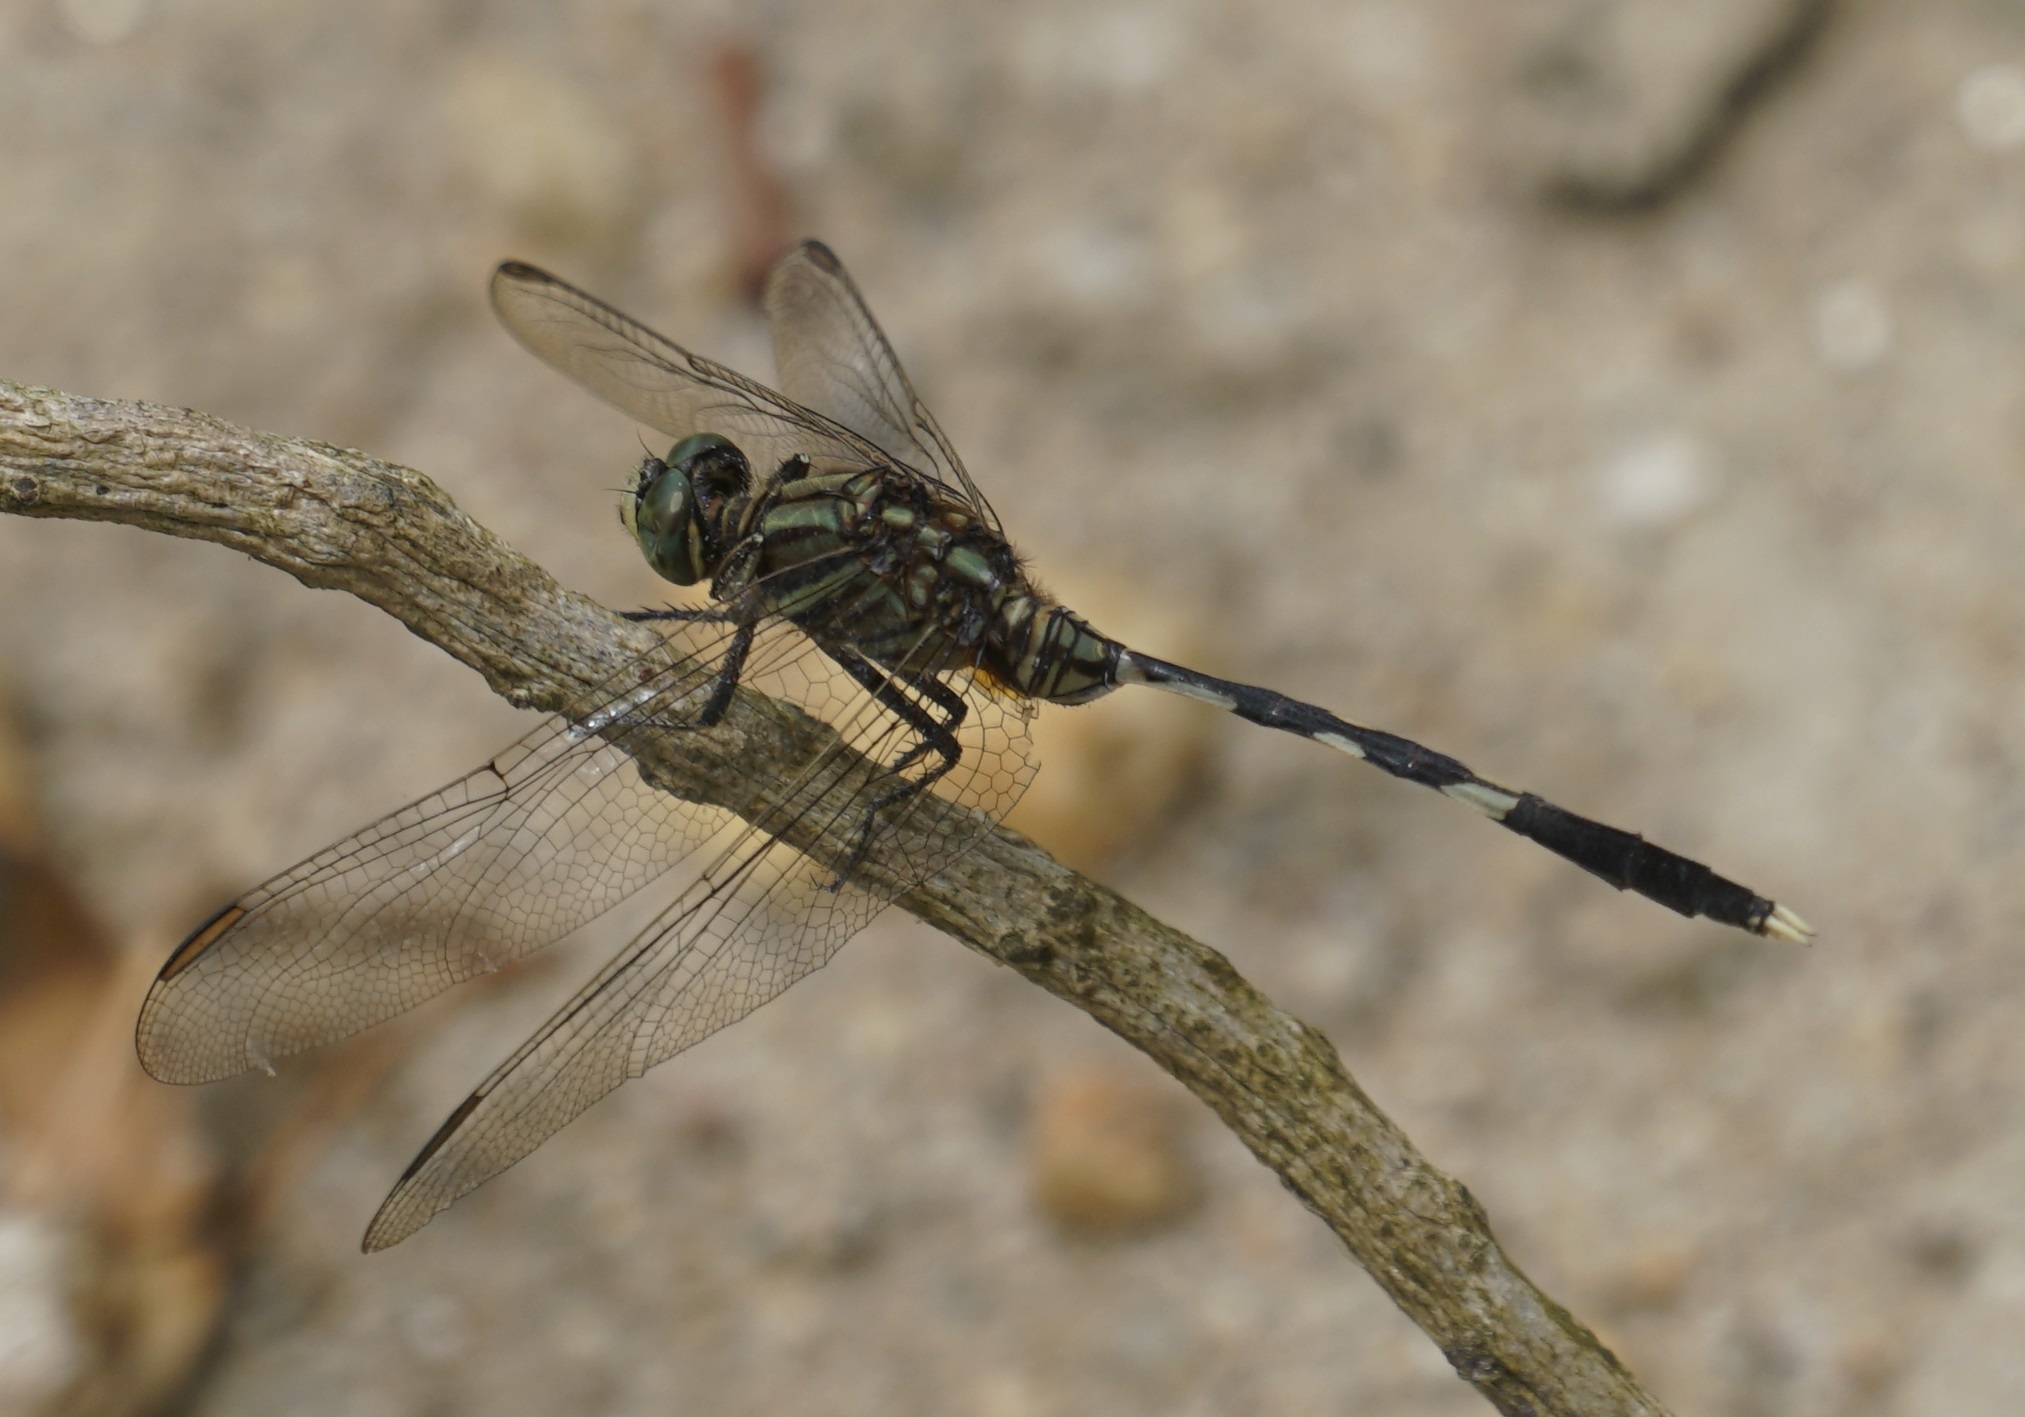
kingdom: Animalia
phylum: Arthropoda
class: Insecta
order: Odonata
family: Libellulidae
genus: Orthetrum
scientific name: Orthetrum sabina
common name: Slender skimmer
